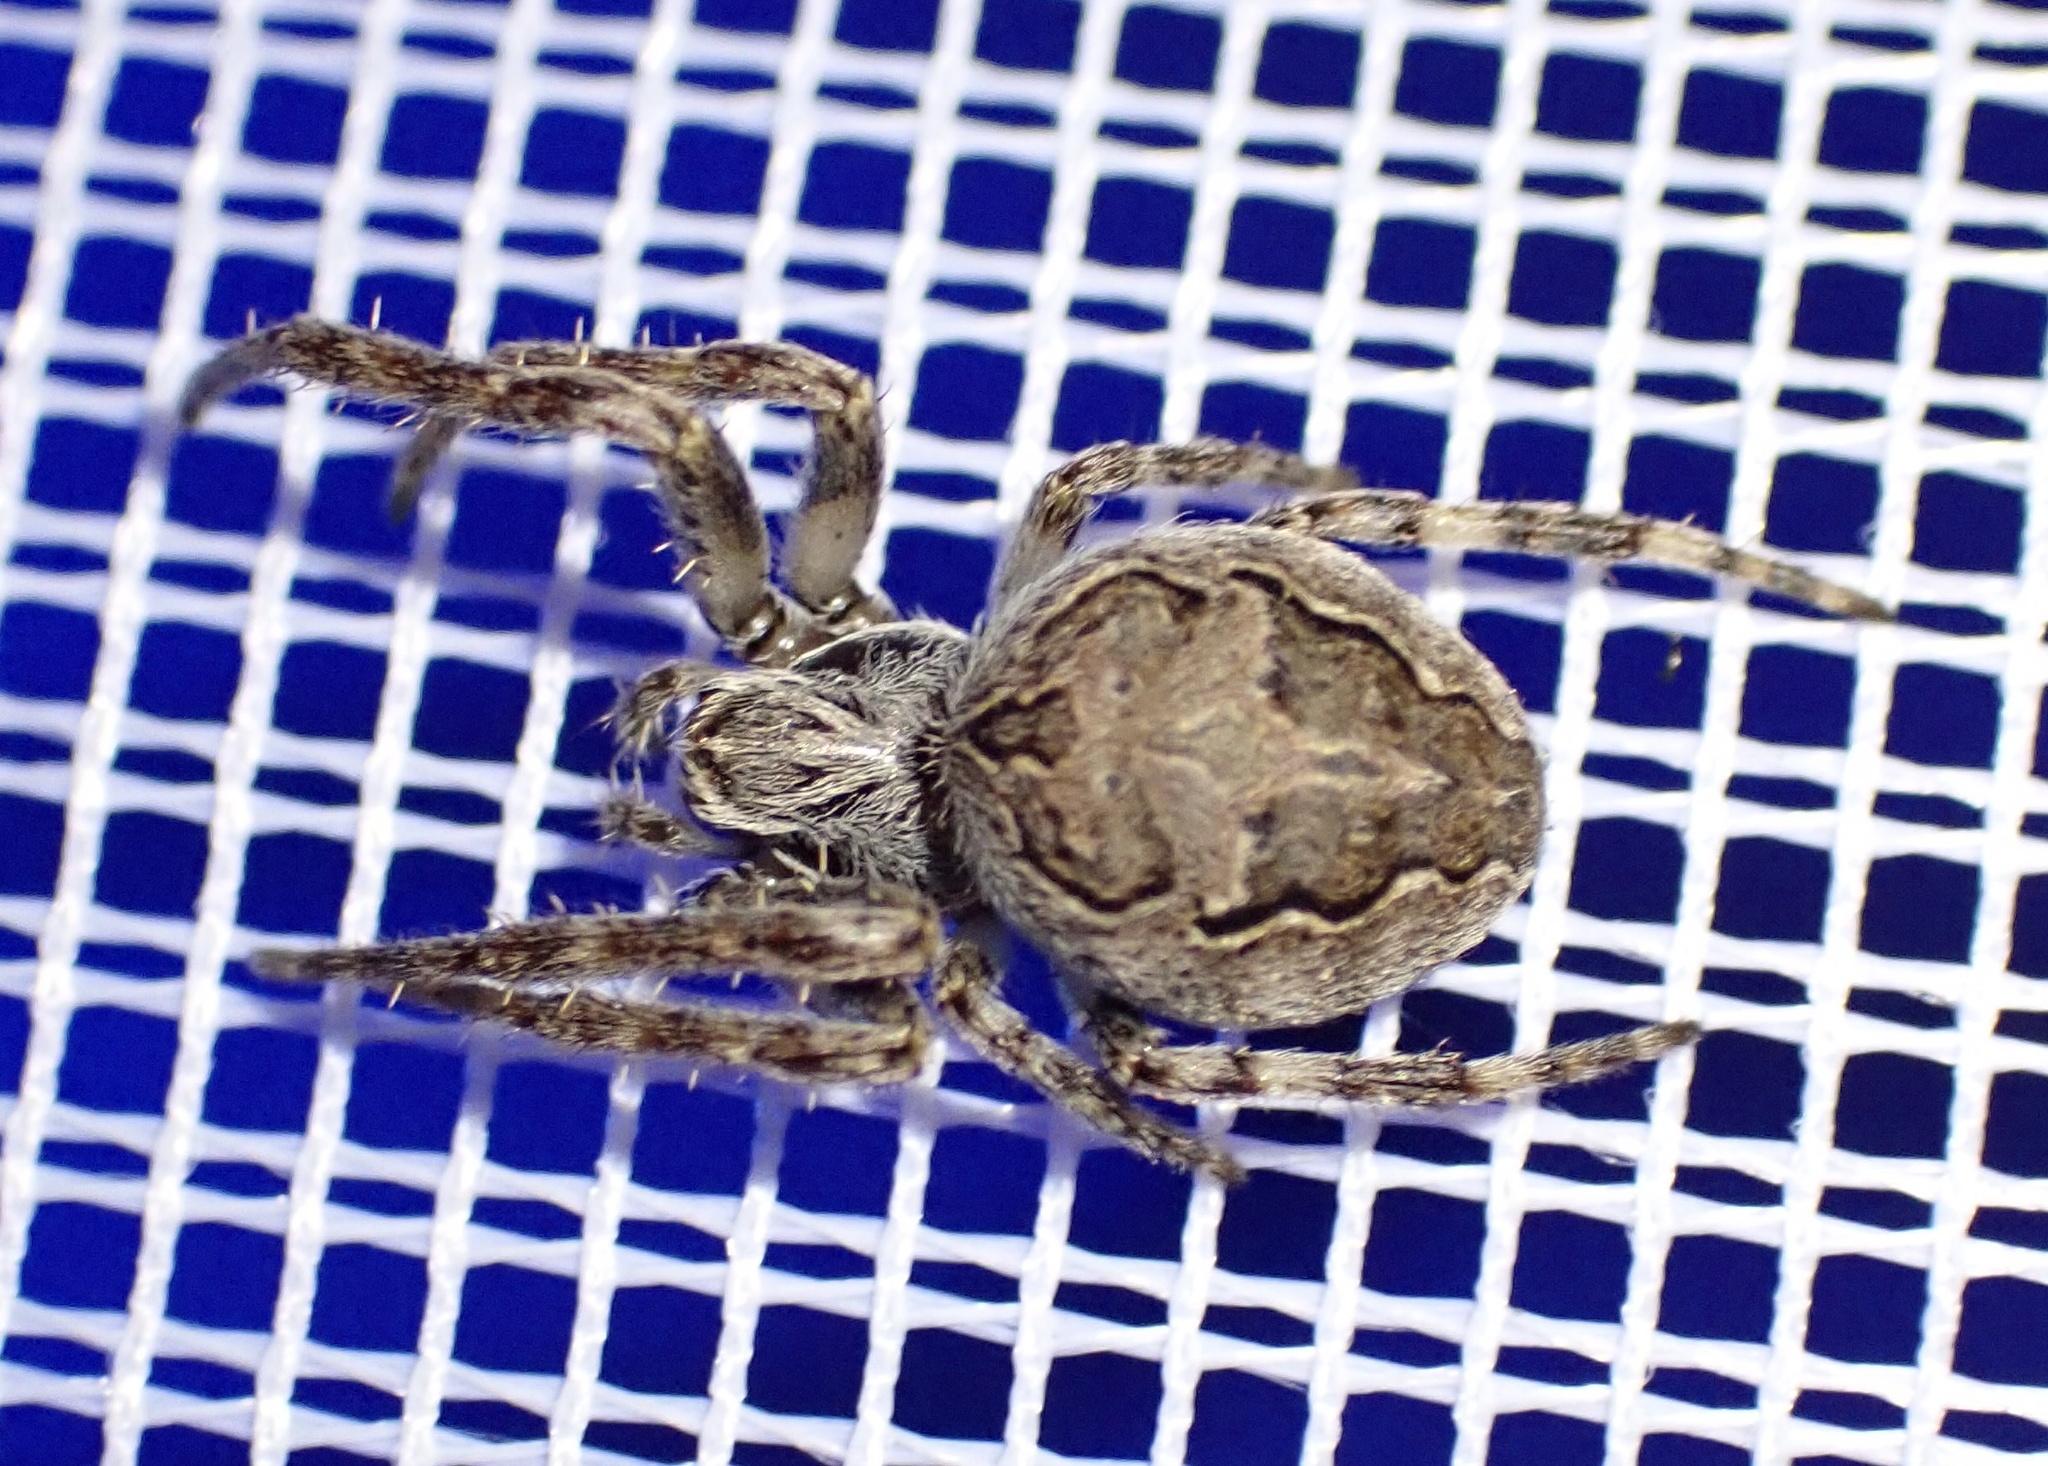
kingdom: Animalia
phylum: Arthropoda
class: Arachnida
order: Araneae
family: Araneidae
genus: Larinioides
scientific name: Larinioides sclopetarius
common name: Bridge orbweaver
